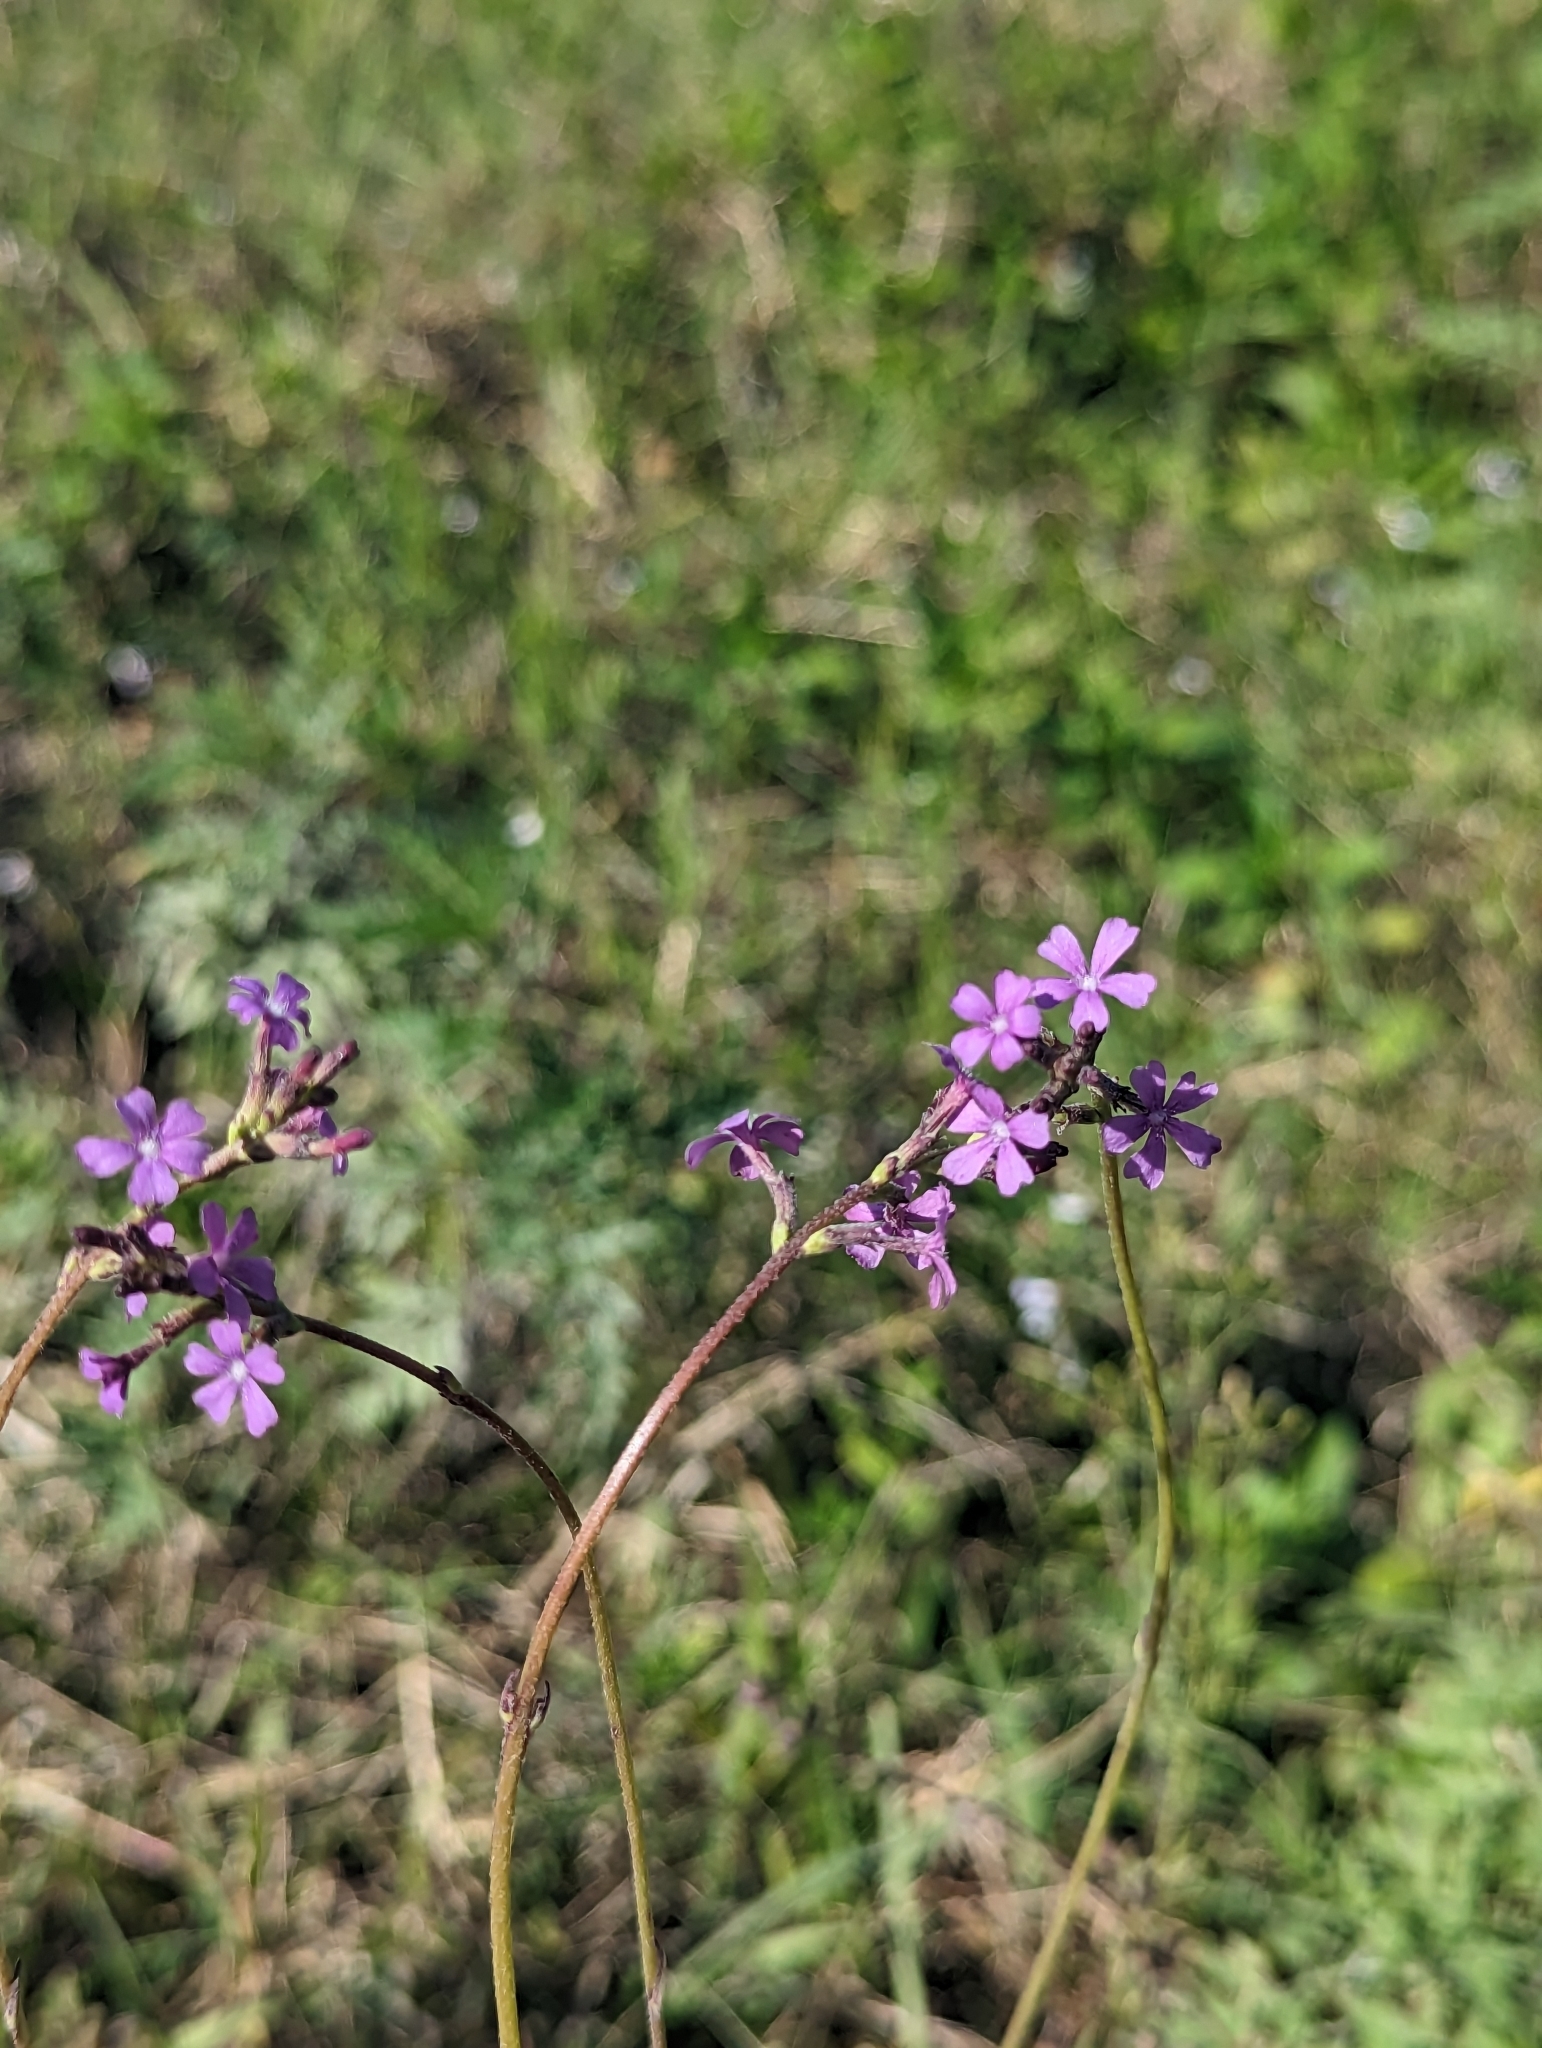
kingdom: Plantae
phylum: Tracheophyta
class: Magnoliopsida
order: Lamiales
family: Orobanchaceae
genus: Buchnera
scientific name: Buchnera floridana
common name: Florida bluehearts
